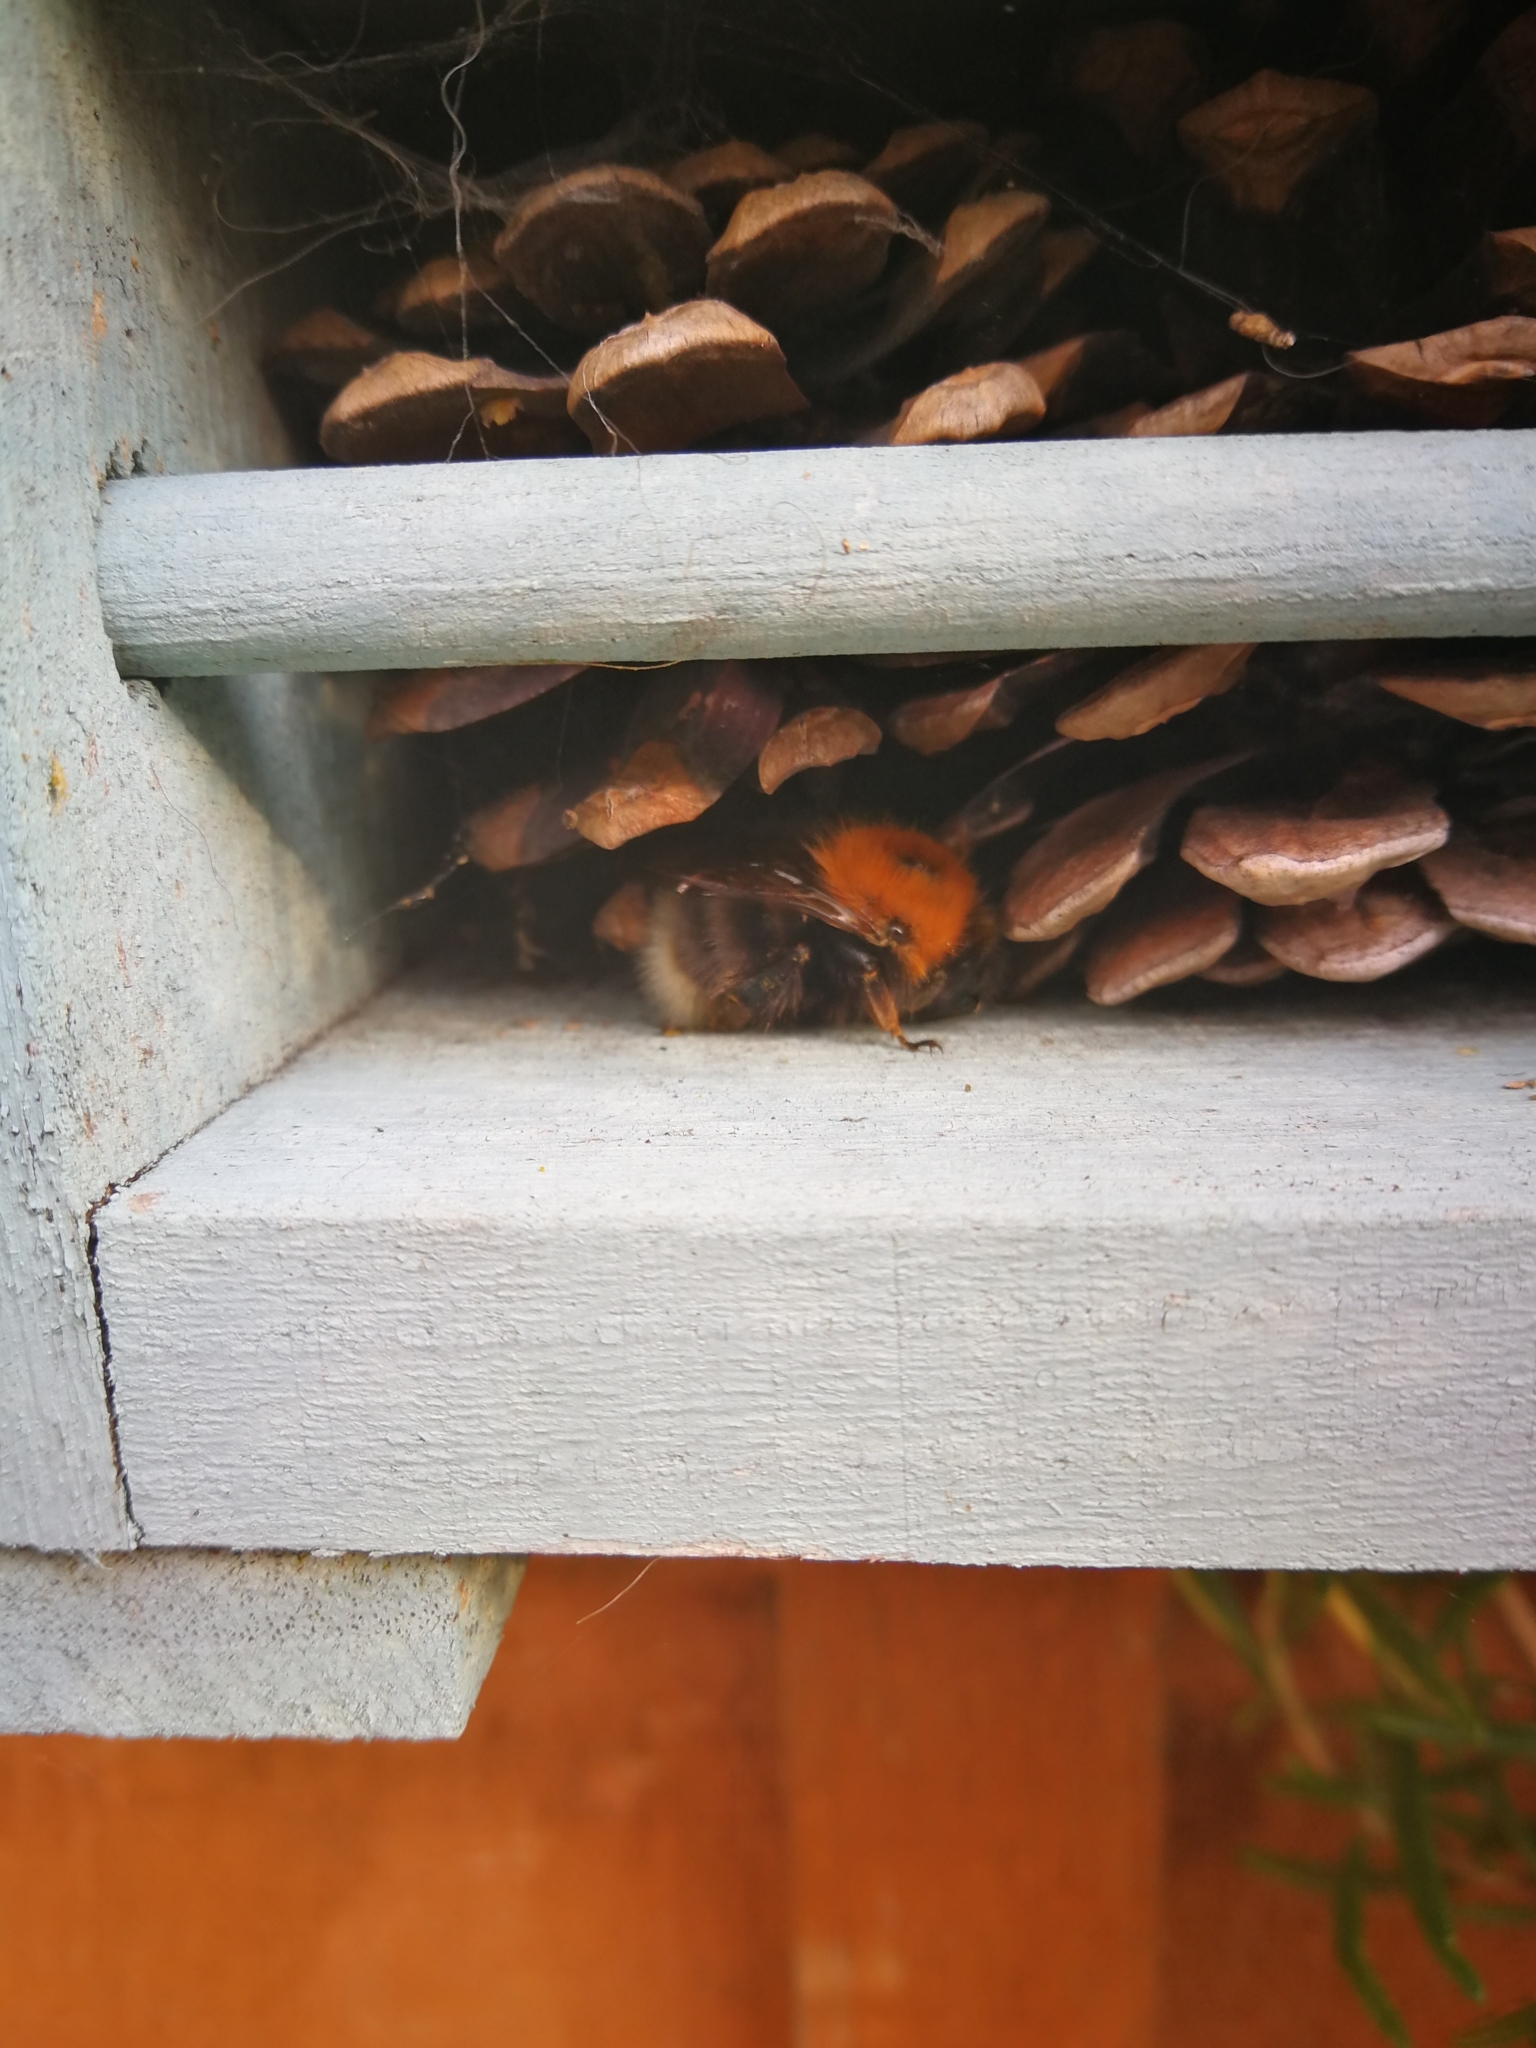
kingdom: Animalia
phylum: Arthropoda
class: Insecta
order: Hymenoptera
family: Apidae
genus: Bombus
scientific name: Bombus hypnorum
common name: New garden bumblebee
